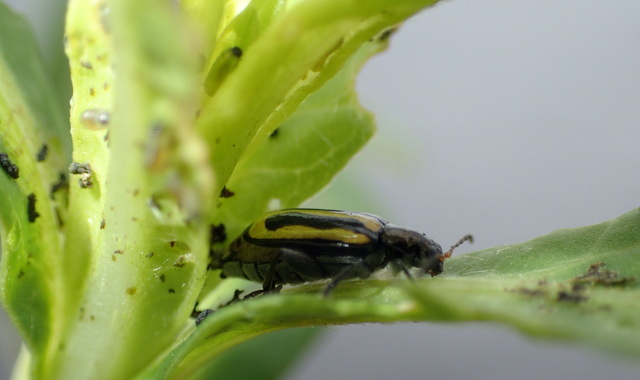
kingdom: Animalia
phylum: Arthropoda
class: Insecta
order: Coleoptera
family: Chrysomelidae
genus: Agasicles
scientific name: Agasicles hygrophila
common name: Alligatorweed flea beetle
